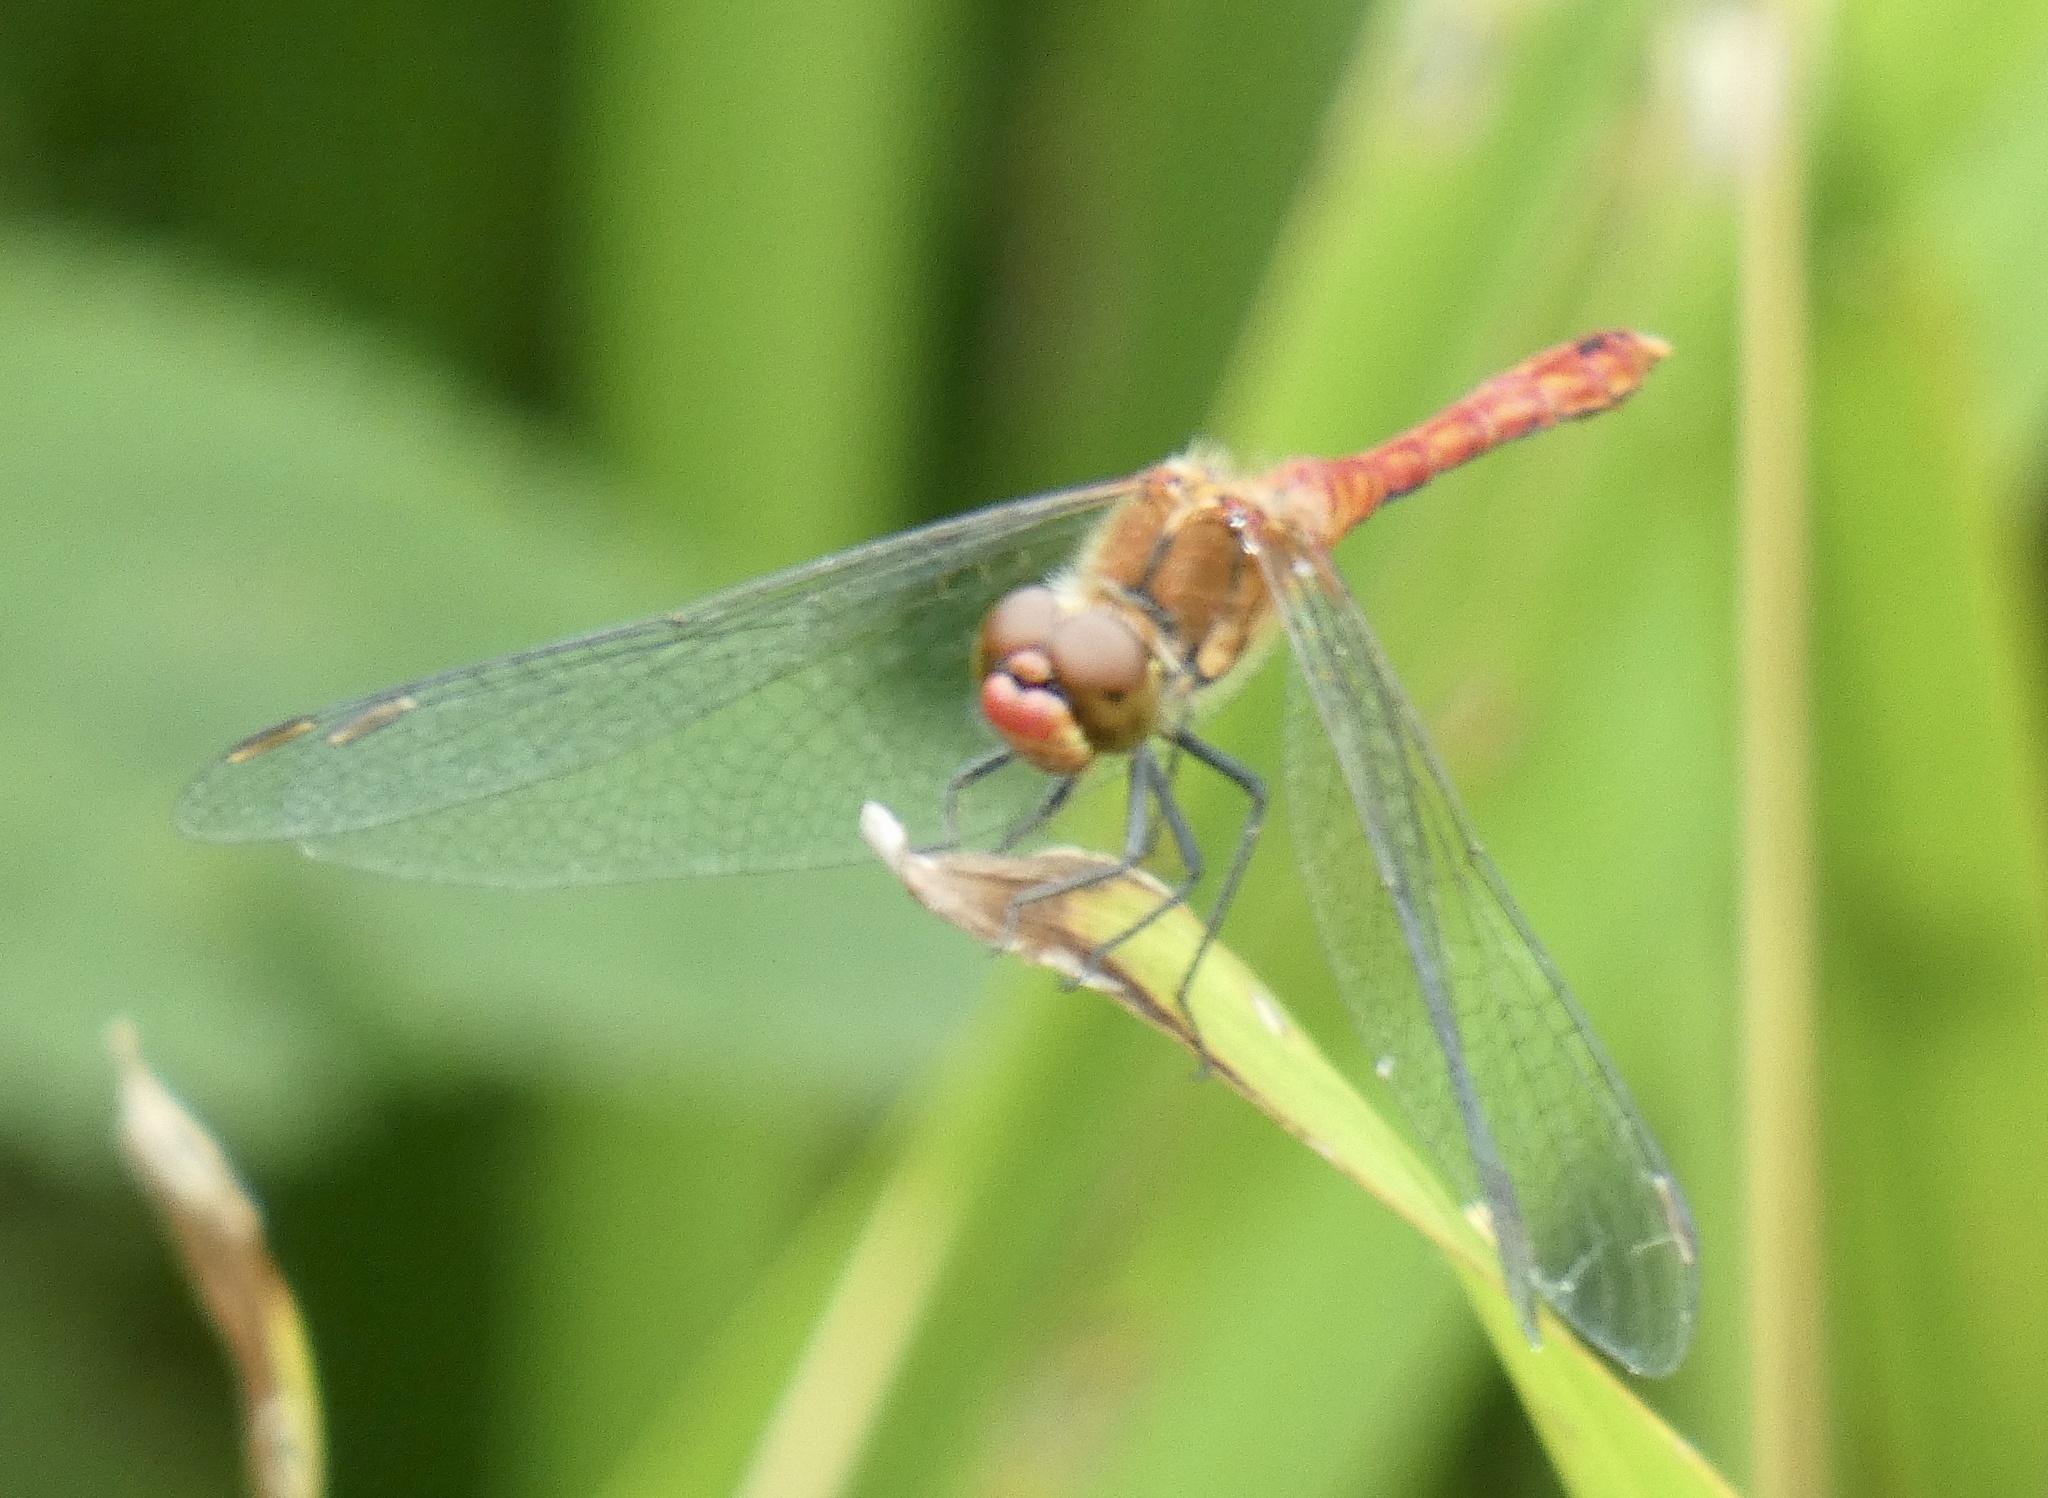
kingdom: Animalia
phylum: Arthropoda
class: Insecta
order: Odonata
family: Libellulidae
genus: Sympetrum
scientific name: Sympetrum sanguineum
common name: Ruddy darter
